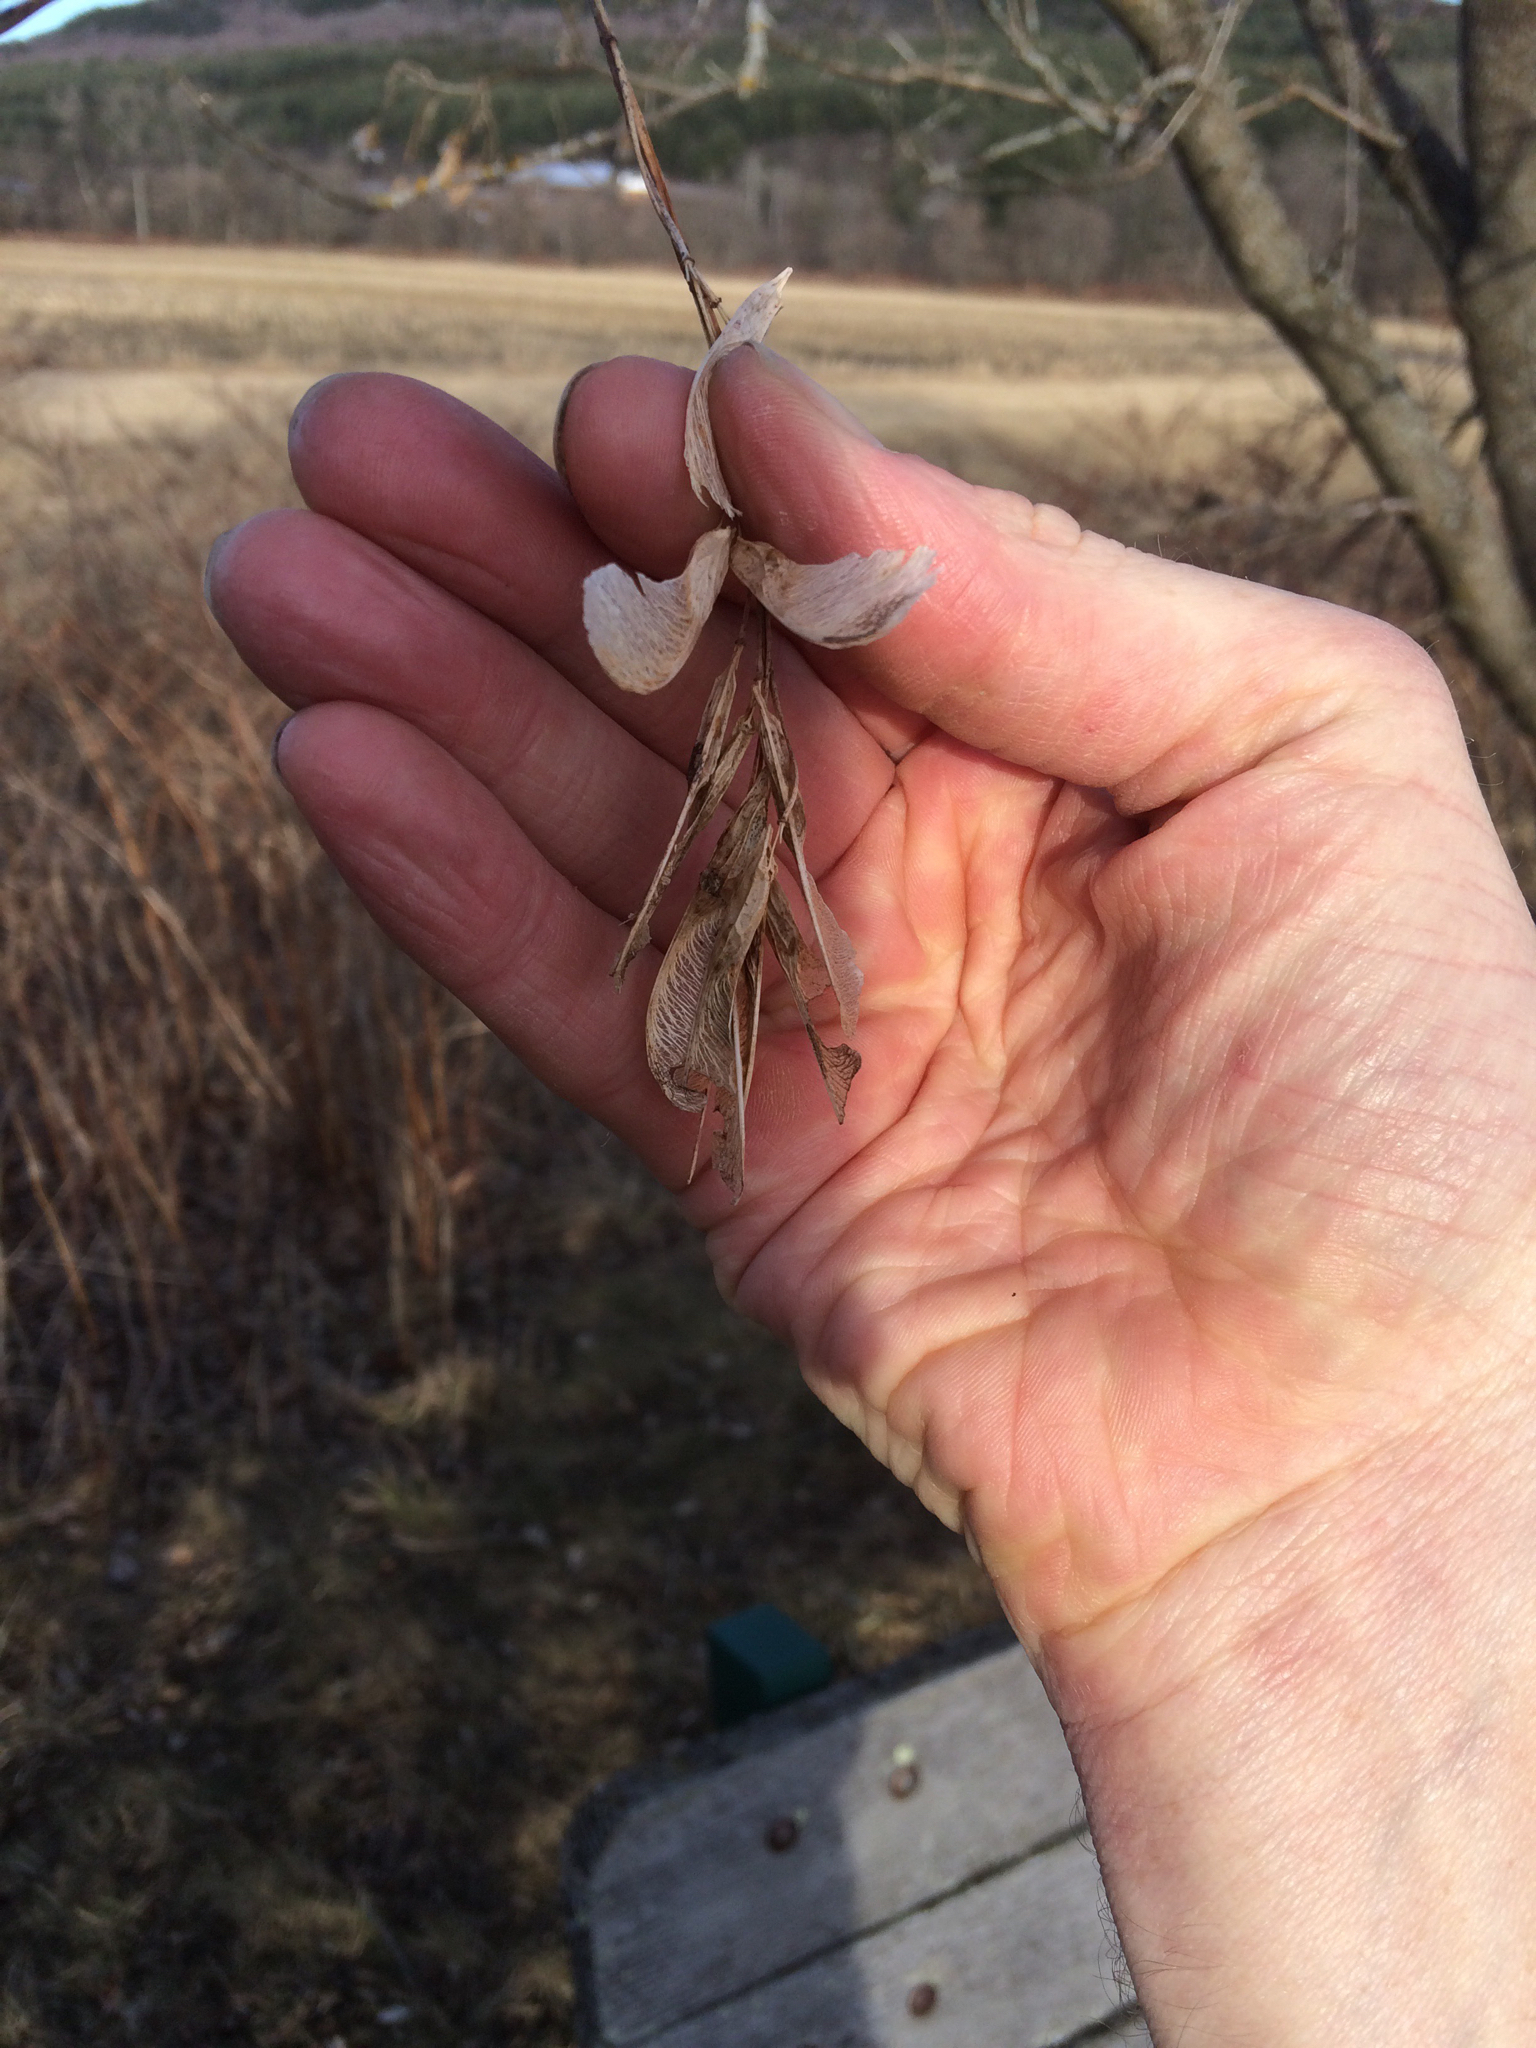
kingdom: Plantae
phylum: Tracheophyta
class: Magnoliopsida
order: Sapindales
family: Sapindaceae
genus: Acer
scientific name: Acer negundo
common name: Ashleaf maple
